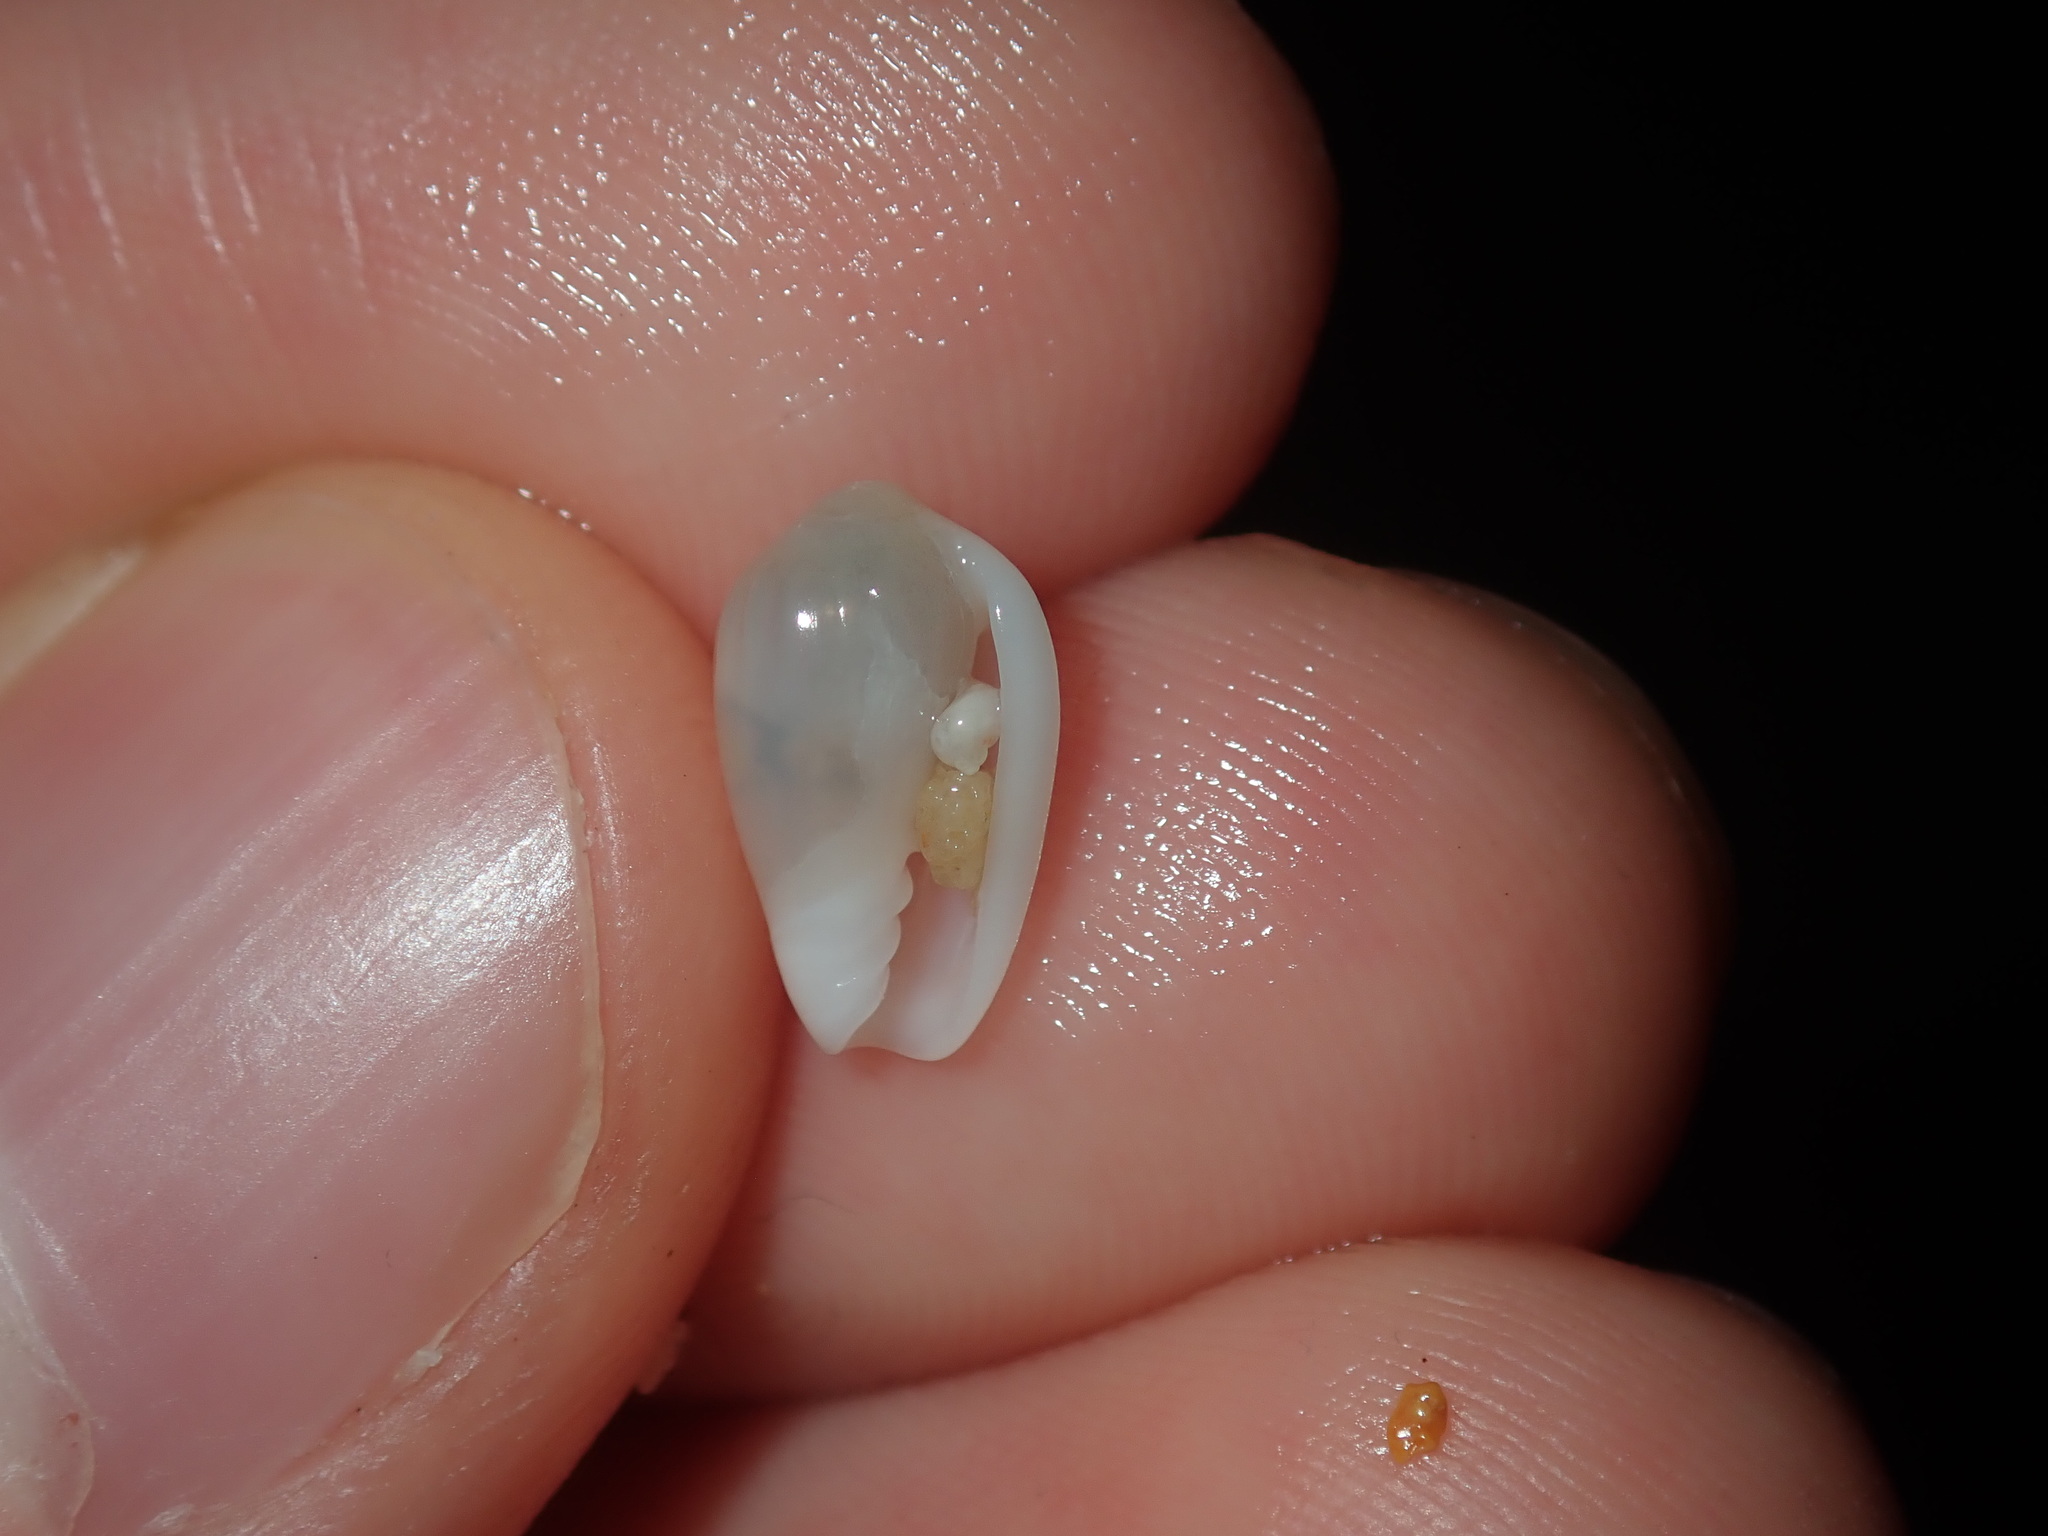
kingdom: Animalia
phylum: Mollusca
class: Gastropoda
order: Neogastropoda
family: Marginellidae
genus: Mesoginella
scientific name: Mesoginella turbinata
